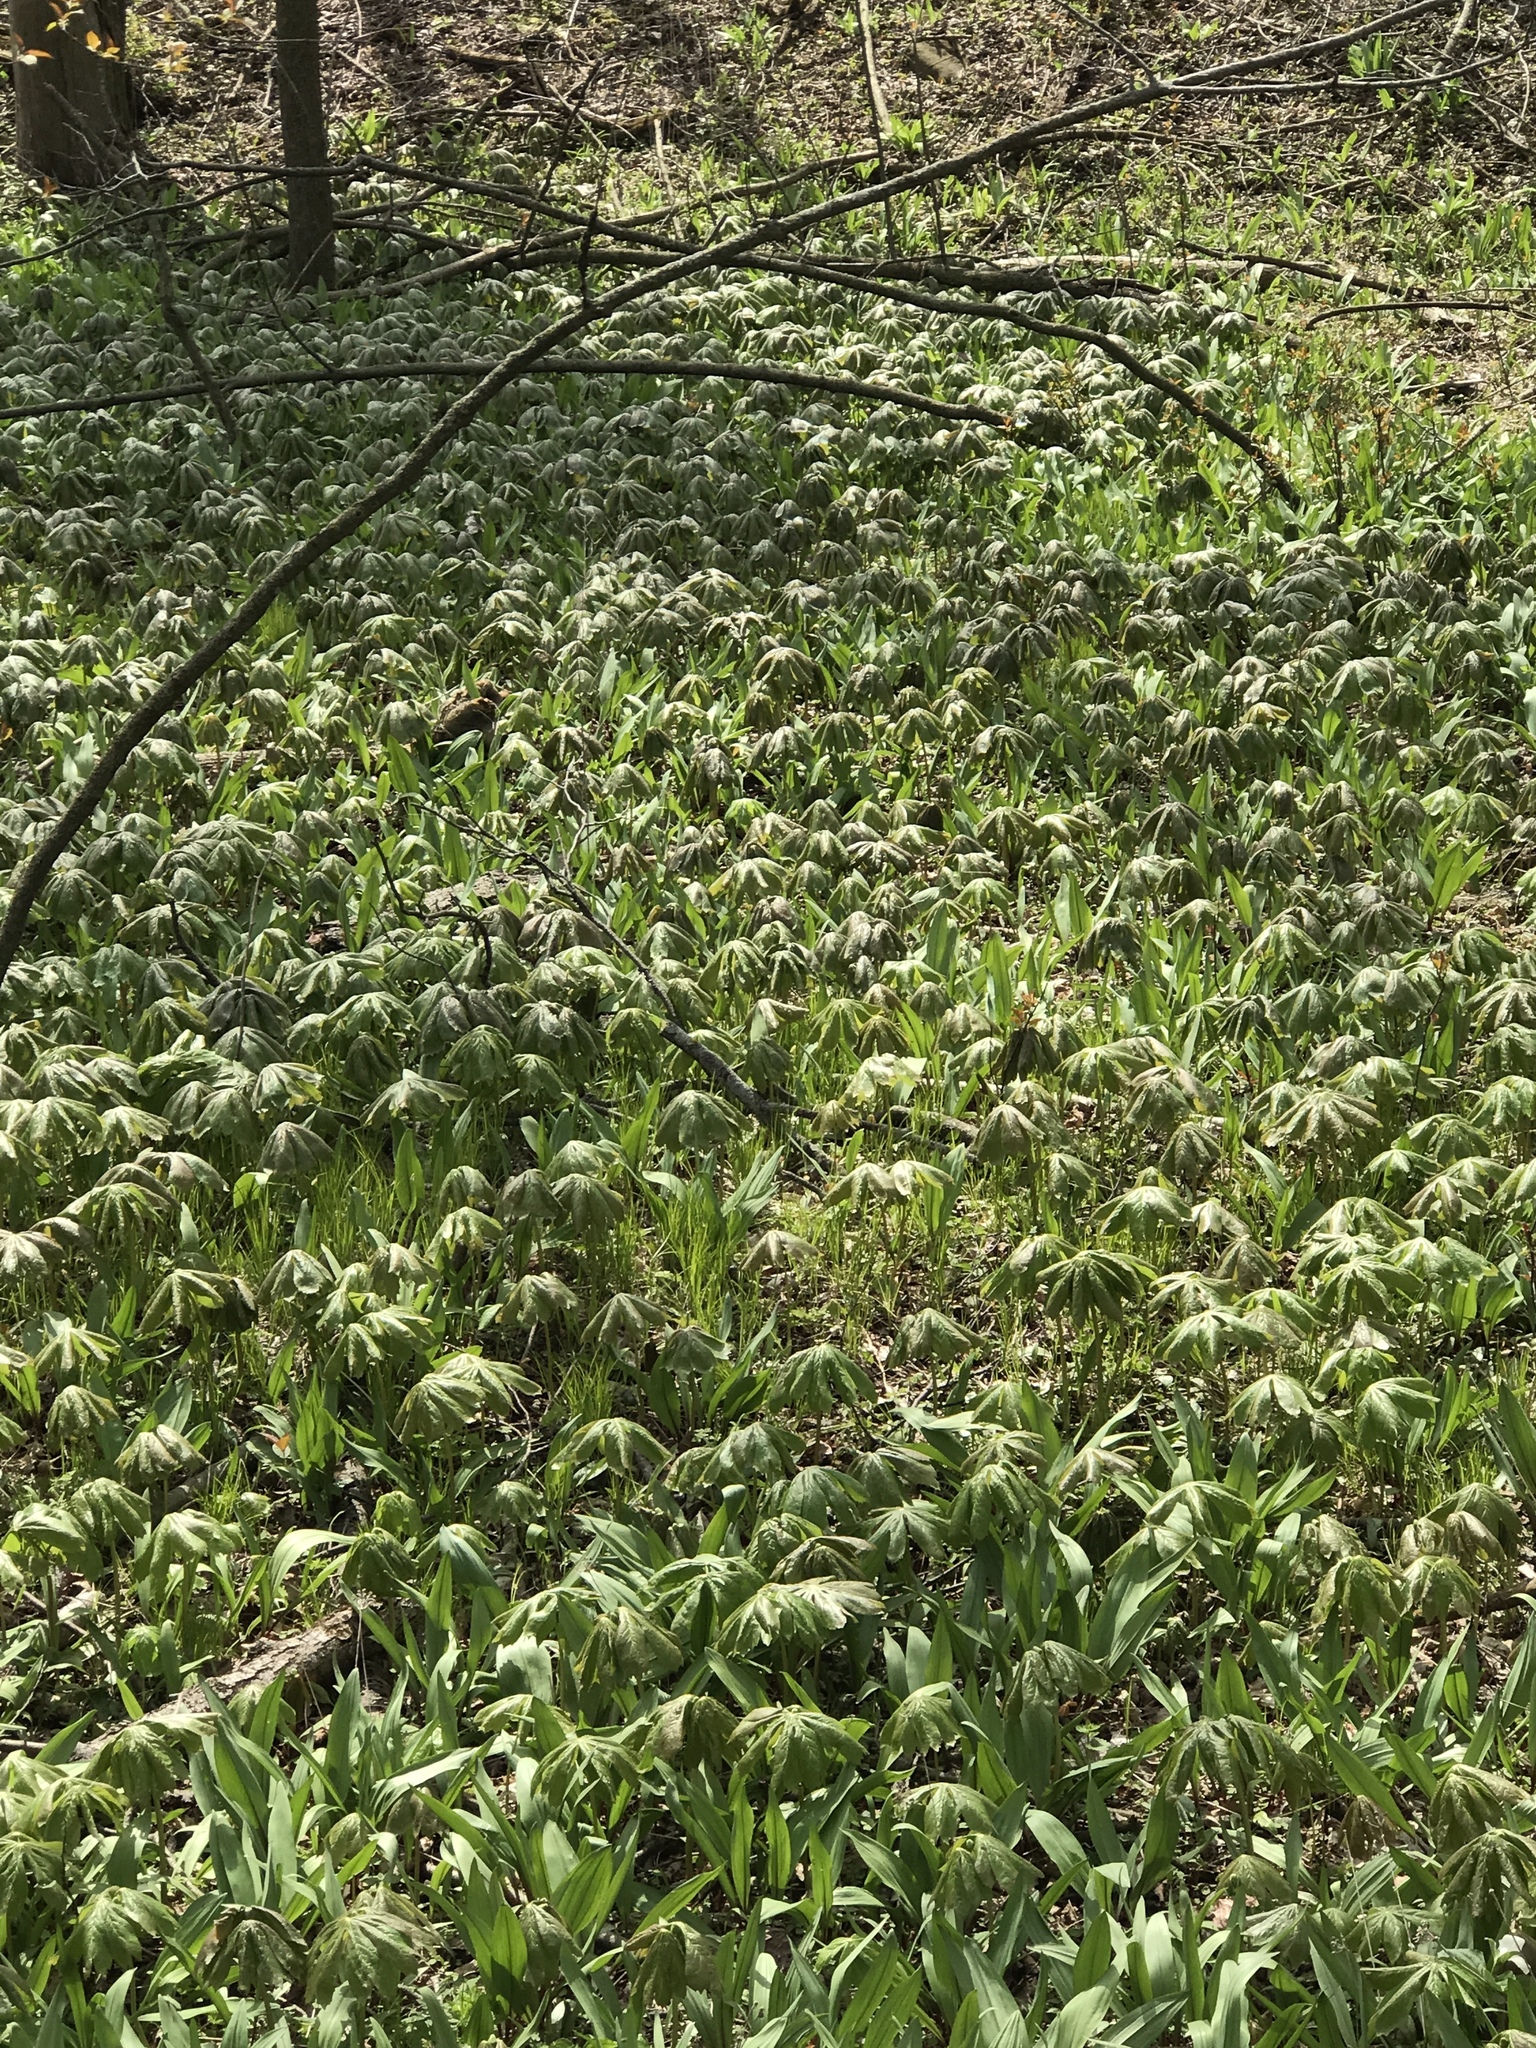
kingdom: Plantae
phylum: Tracheophyta
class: Magnoliopsida
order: Ranunculales
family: Berberidaceae
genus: Podophyllum
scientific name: Podophyllum peltatum
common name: Wild mandrake
